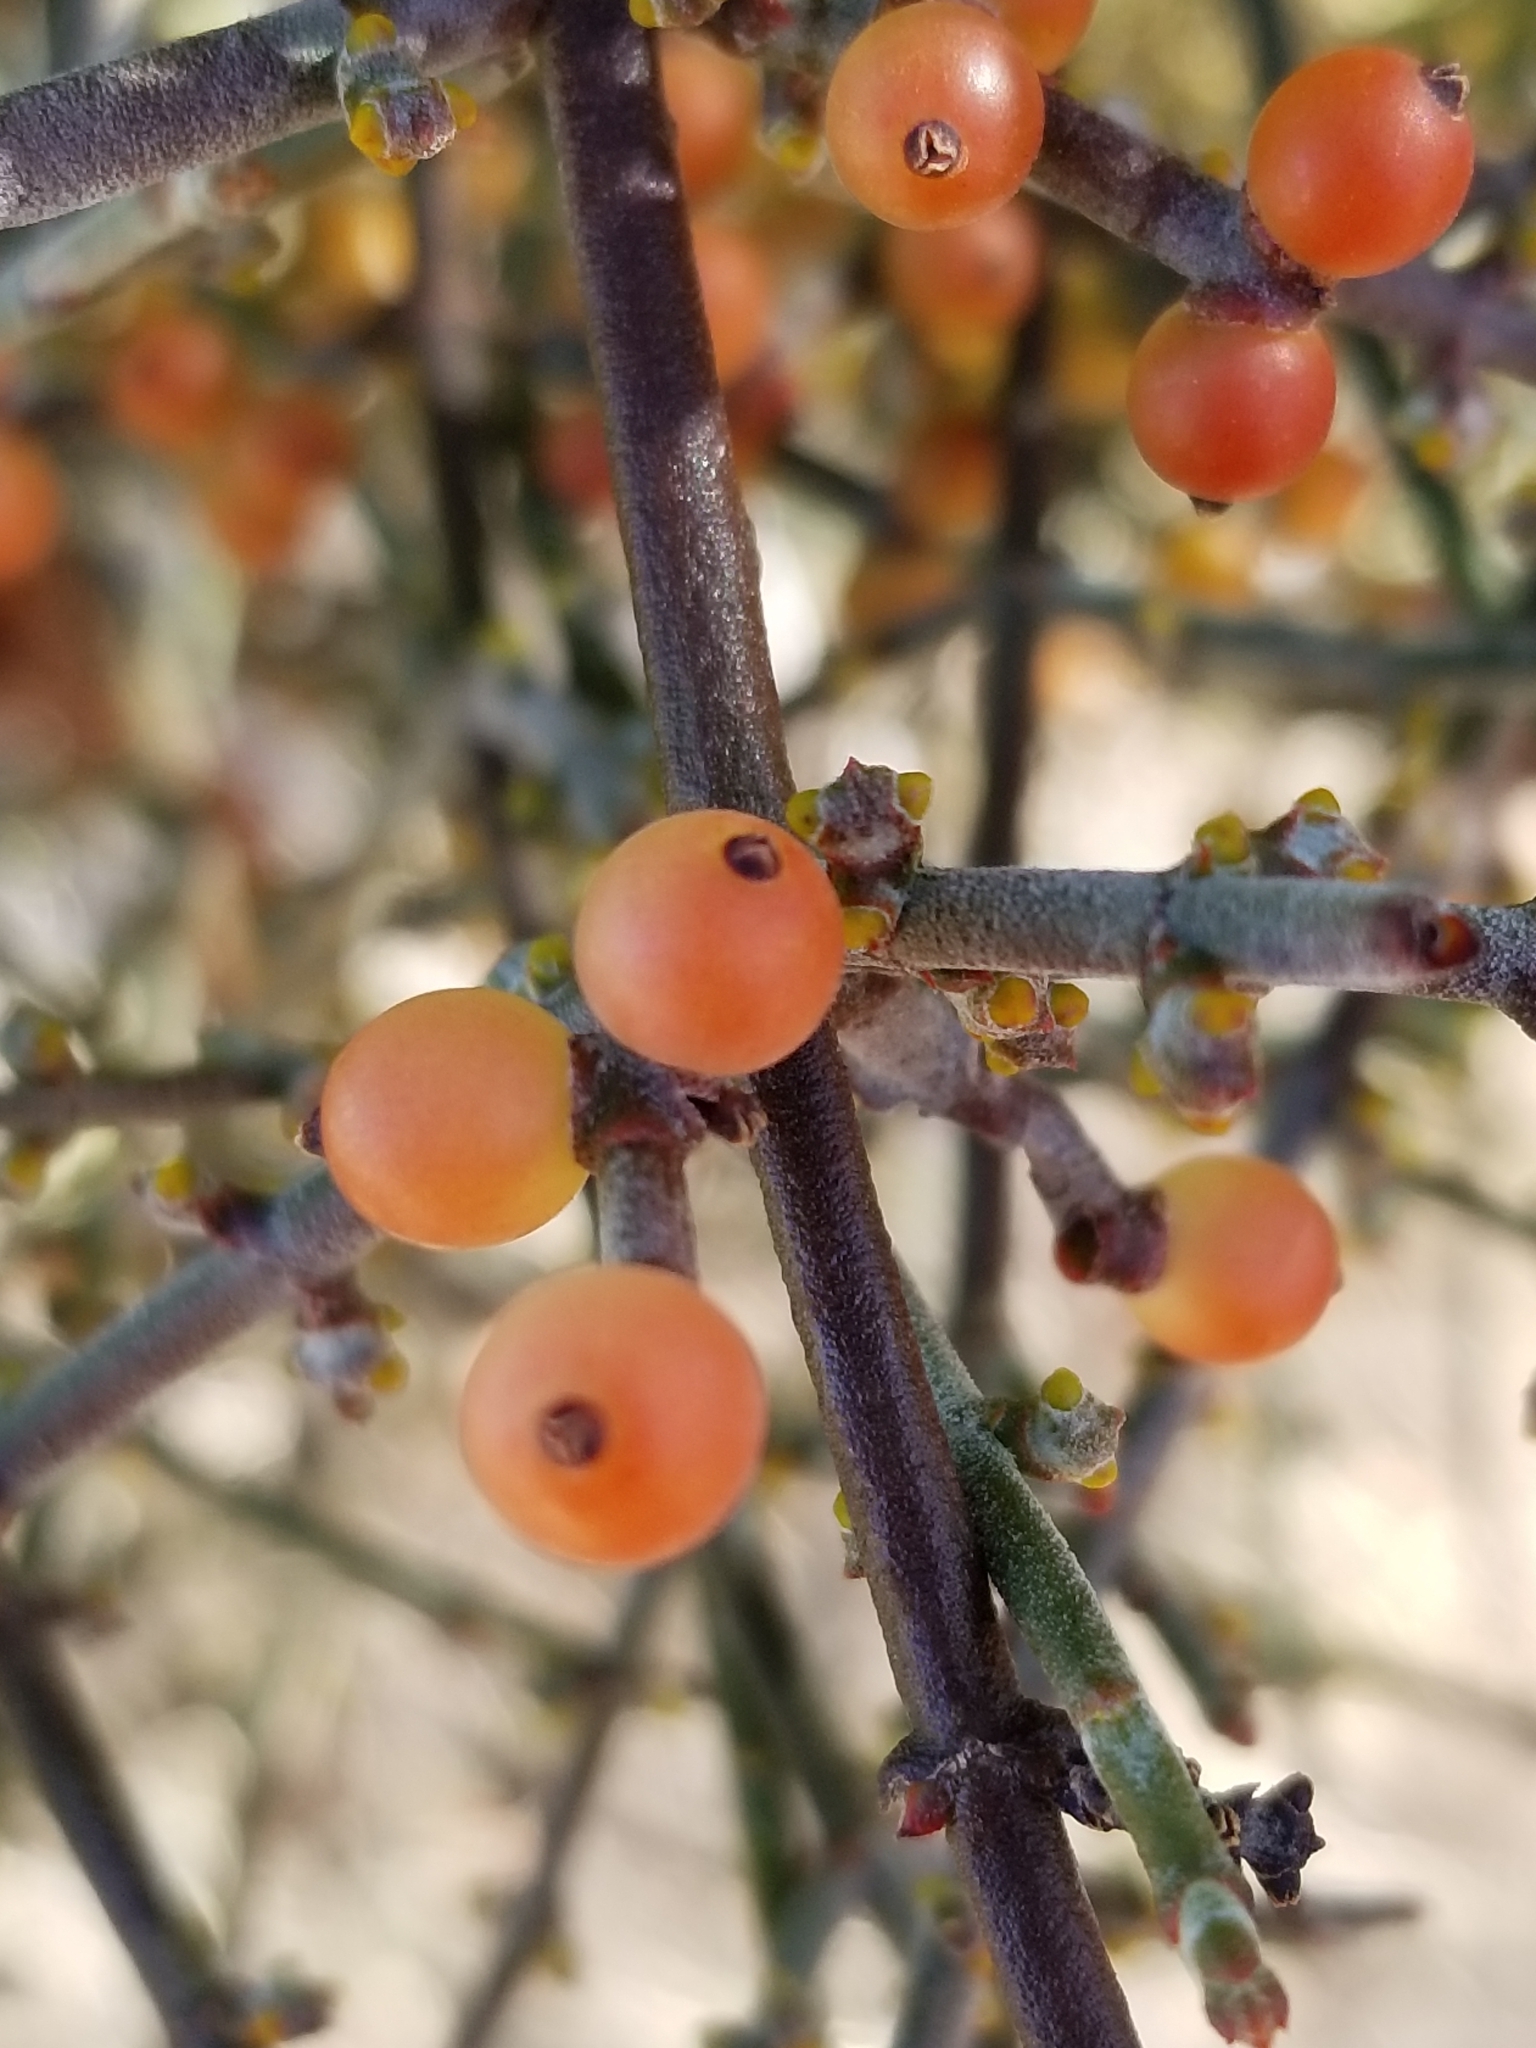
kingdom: Plantae
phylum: Tracheophyta
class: Magnoliopsida
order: Santalales
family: Viscaceae
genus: Phoradendron
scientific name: Phoradendron californicum
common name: Acacia mistletoe
